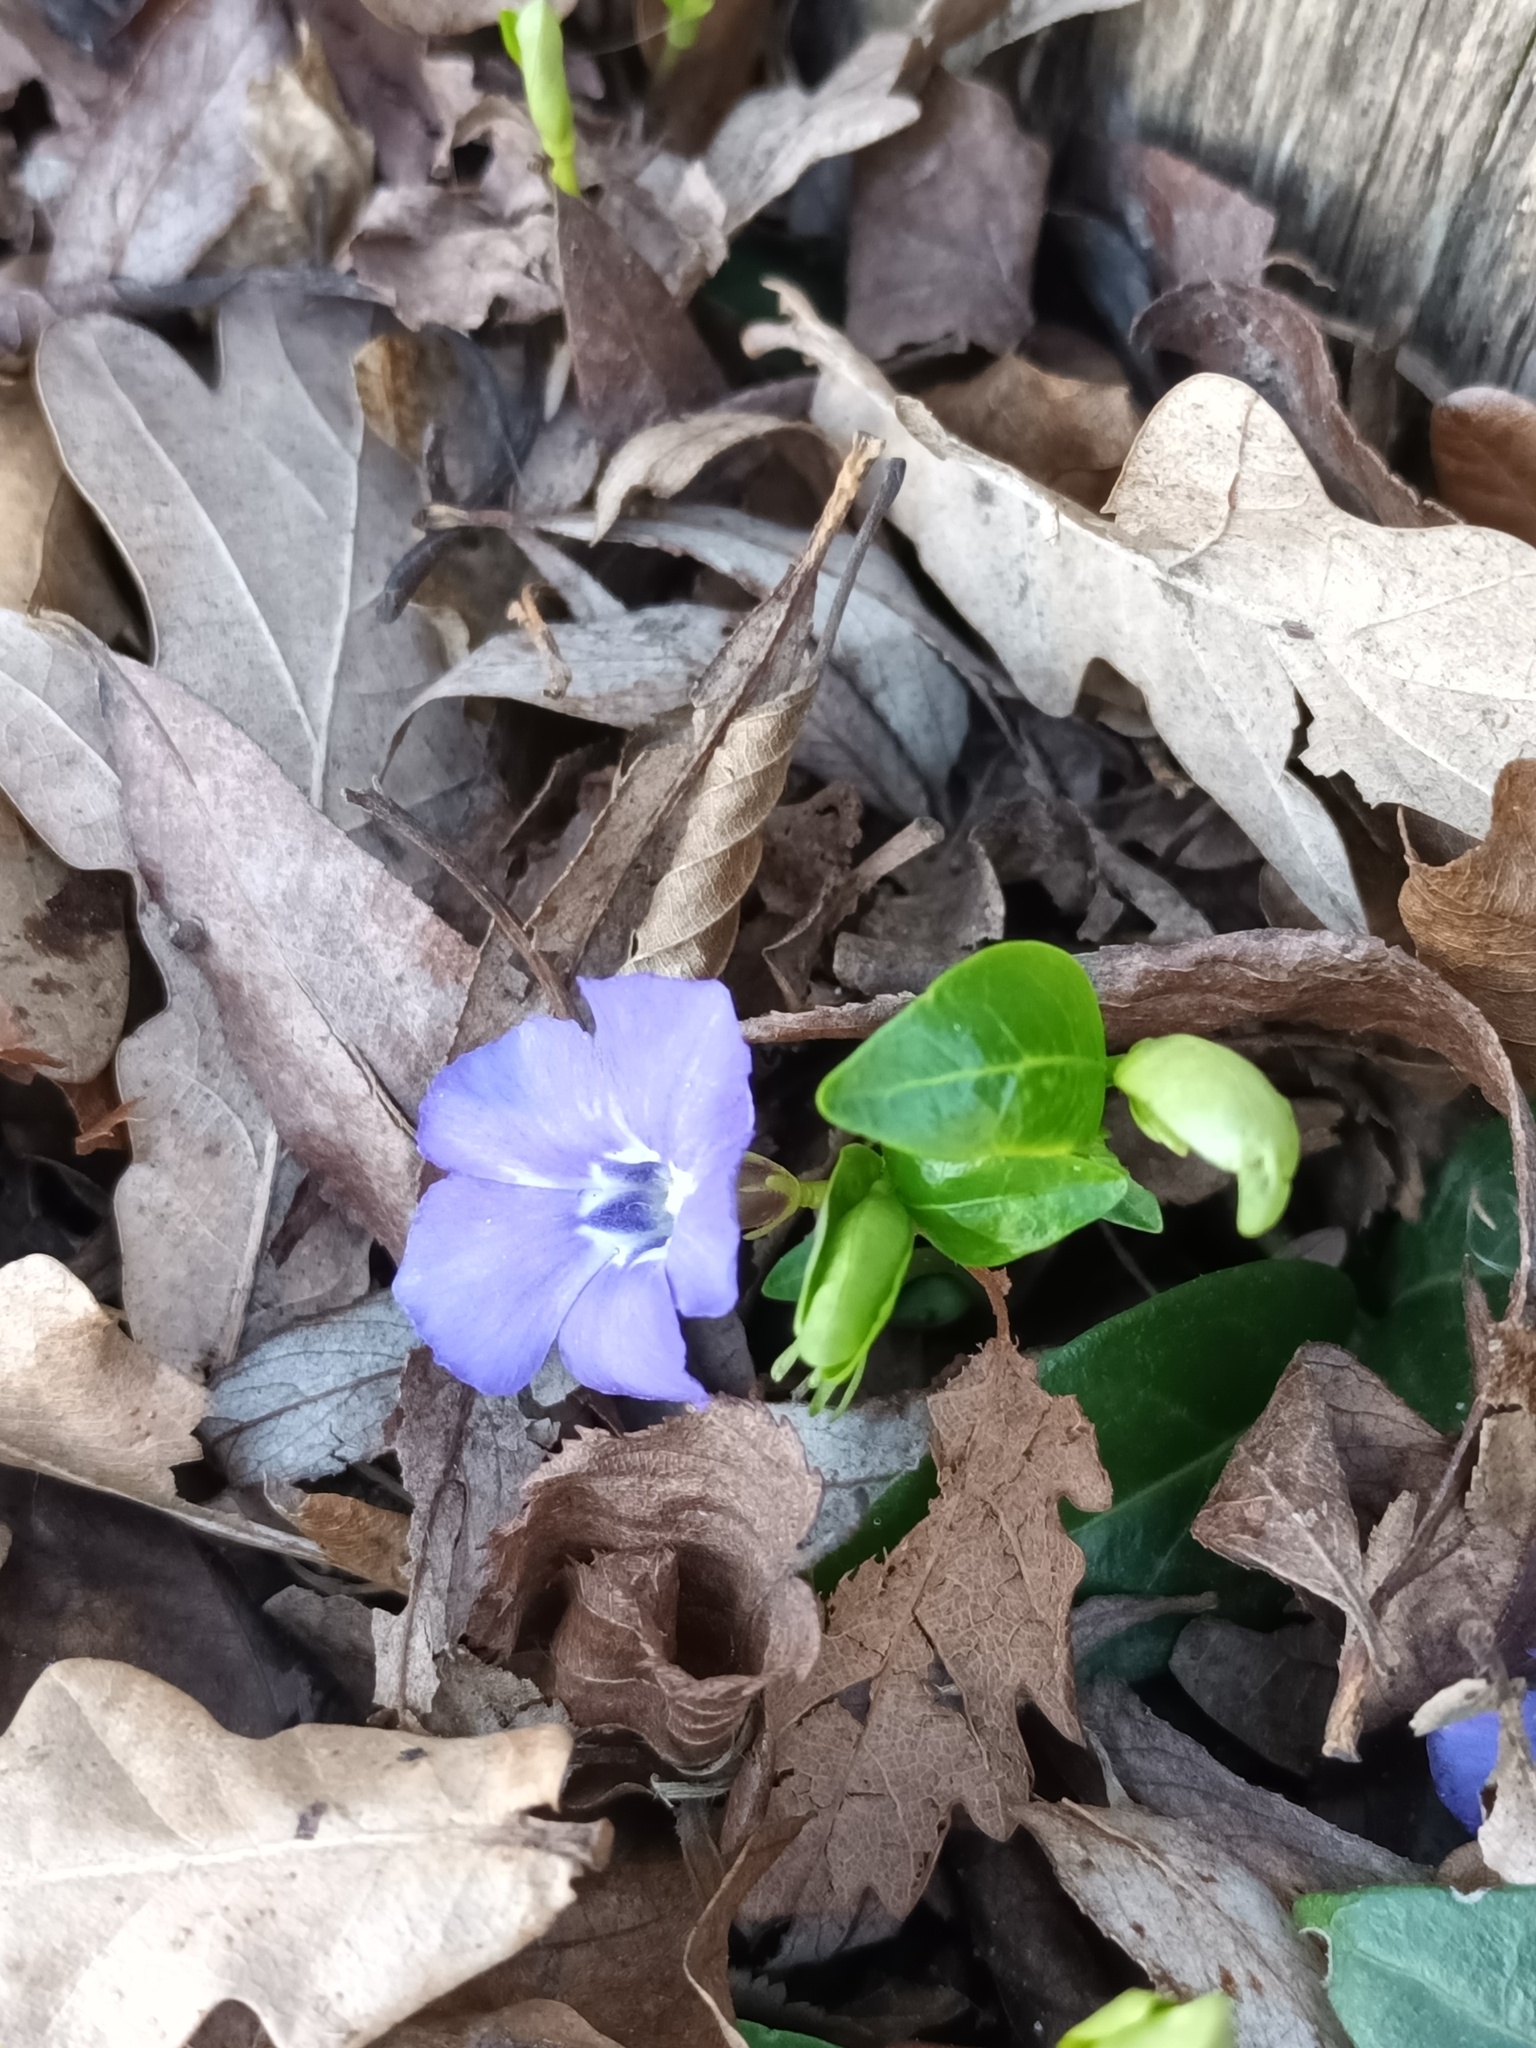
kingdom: Plantae
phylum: Tracheophyta
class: Magnoliopsida
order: Gentianales
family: Apocynaceae
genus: Vinca
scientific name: Vinca minor
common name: Lesser periwinkle
